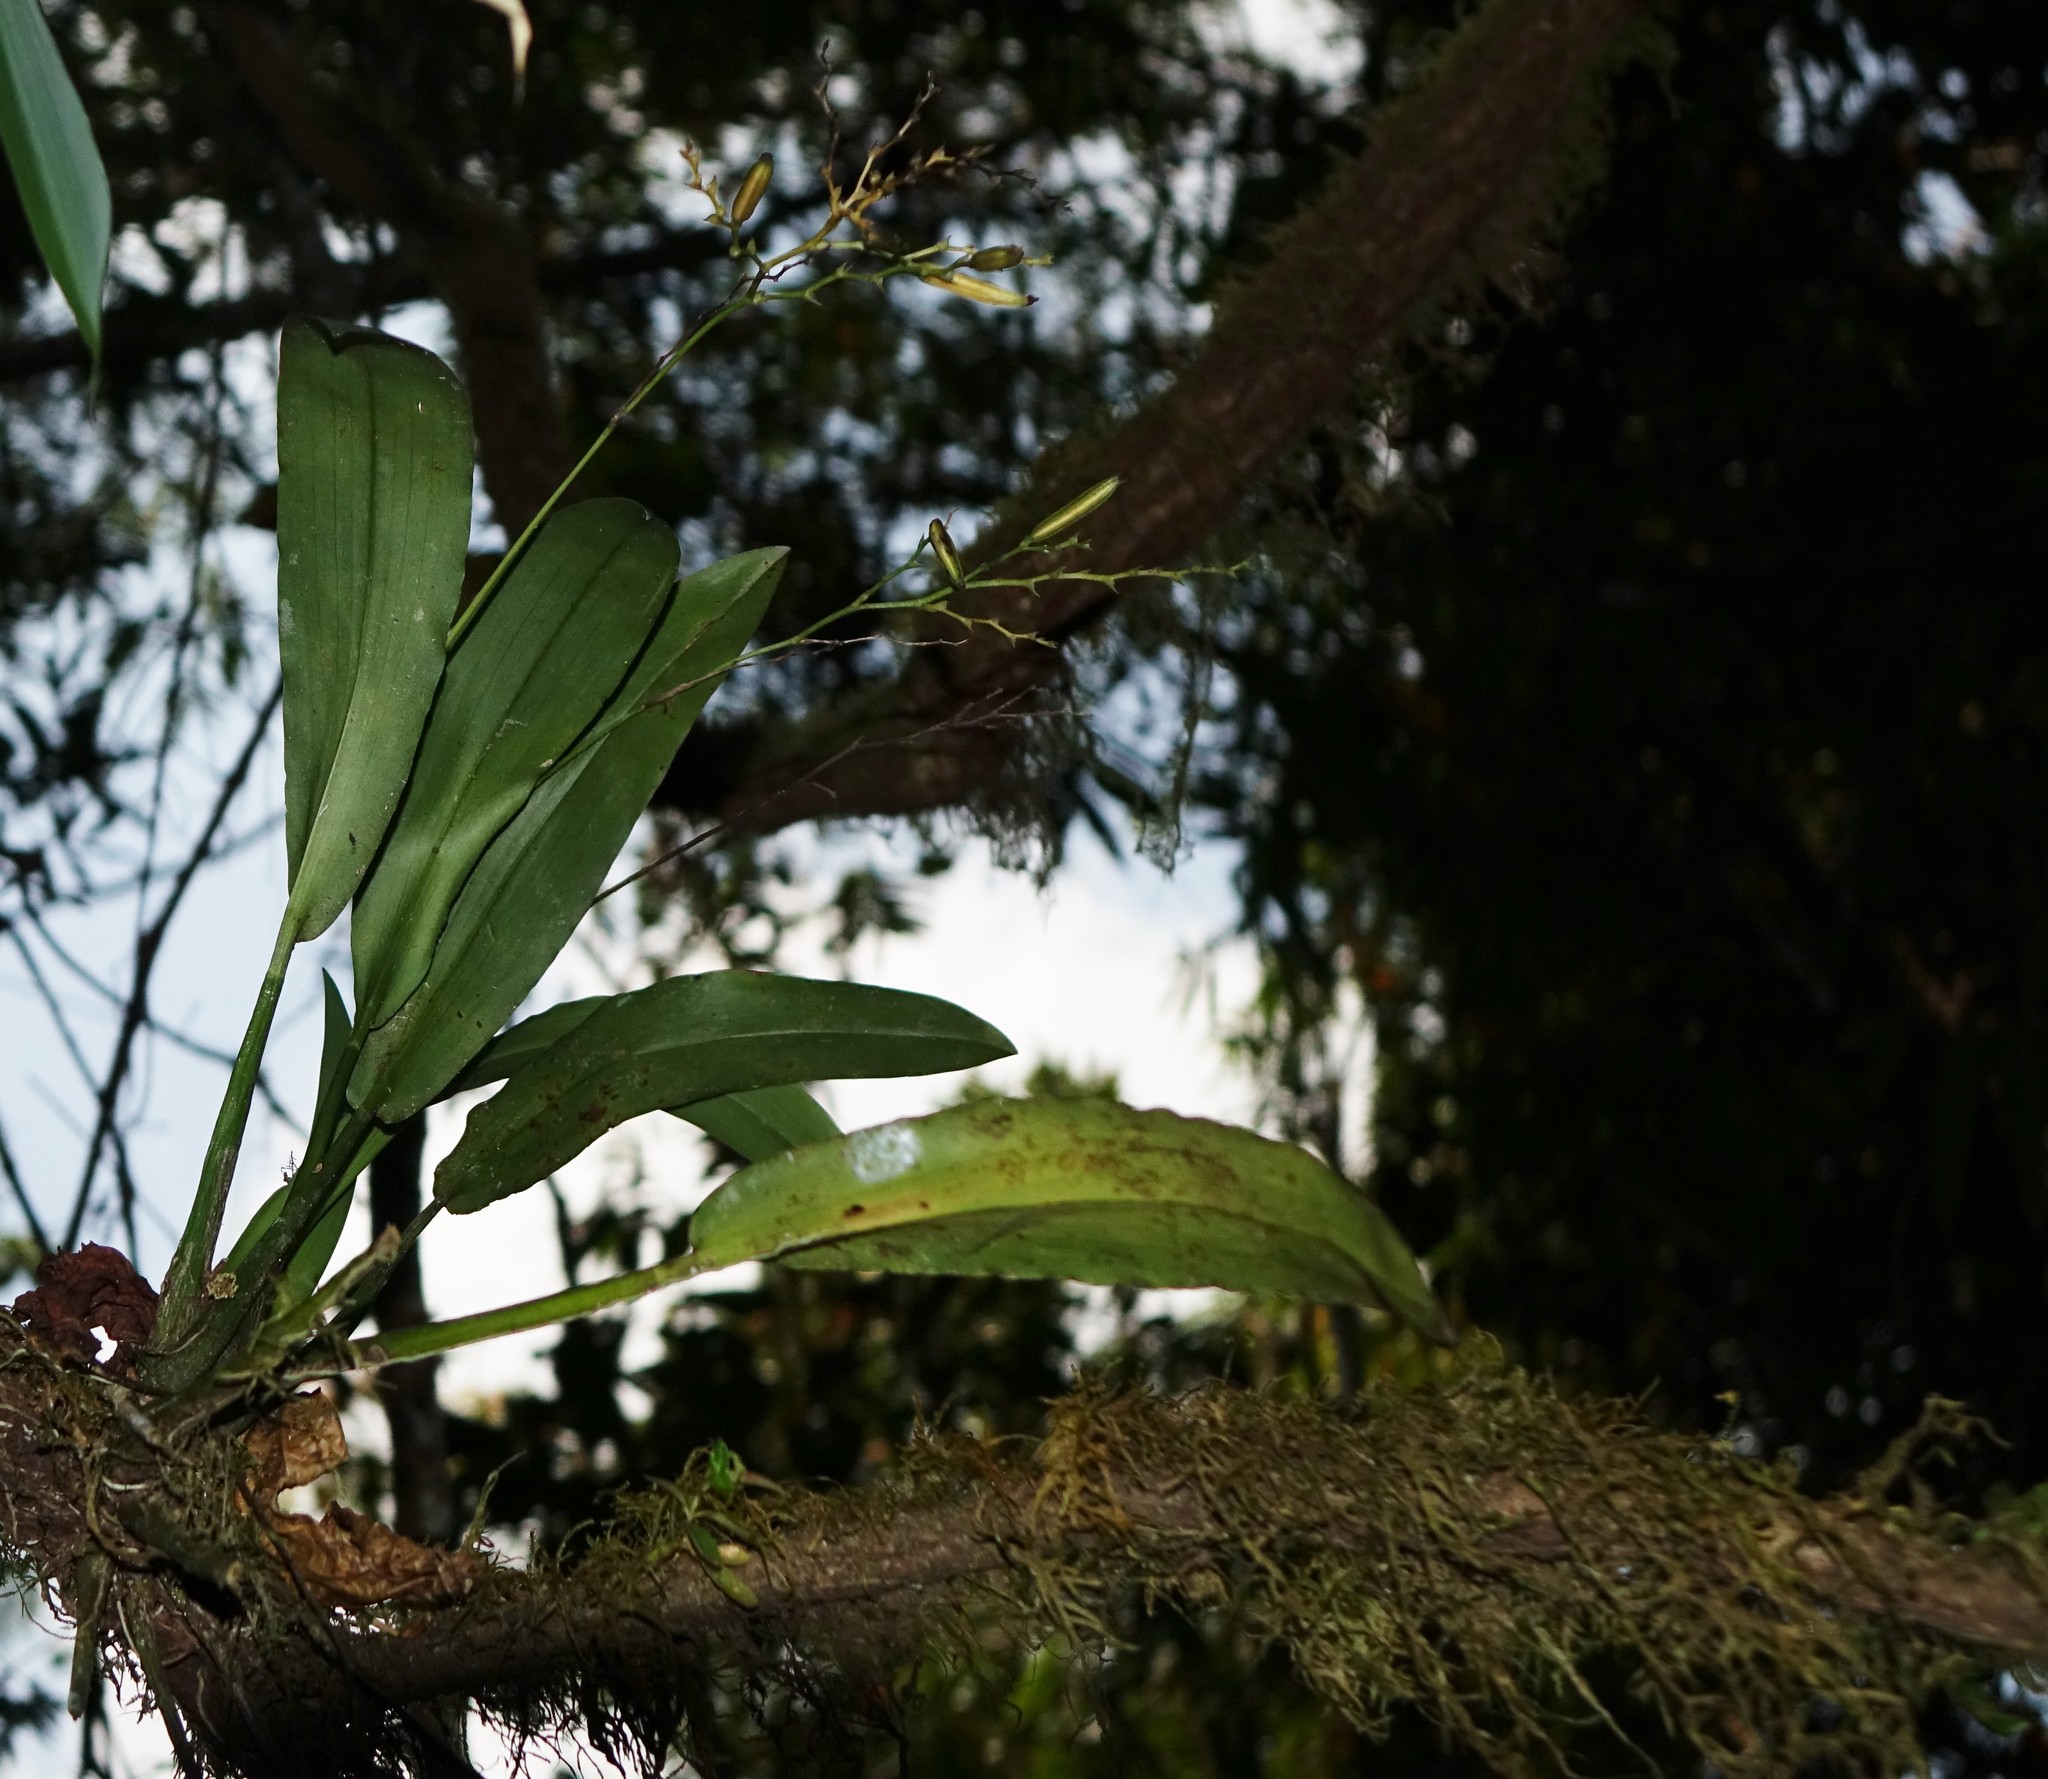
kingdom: Plantae
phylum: Tracheophyta
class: Liliopsida
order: Asparagales
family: Orchidaceae
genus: Polystachya
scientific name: Polystachya cultriformis
